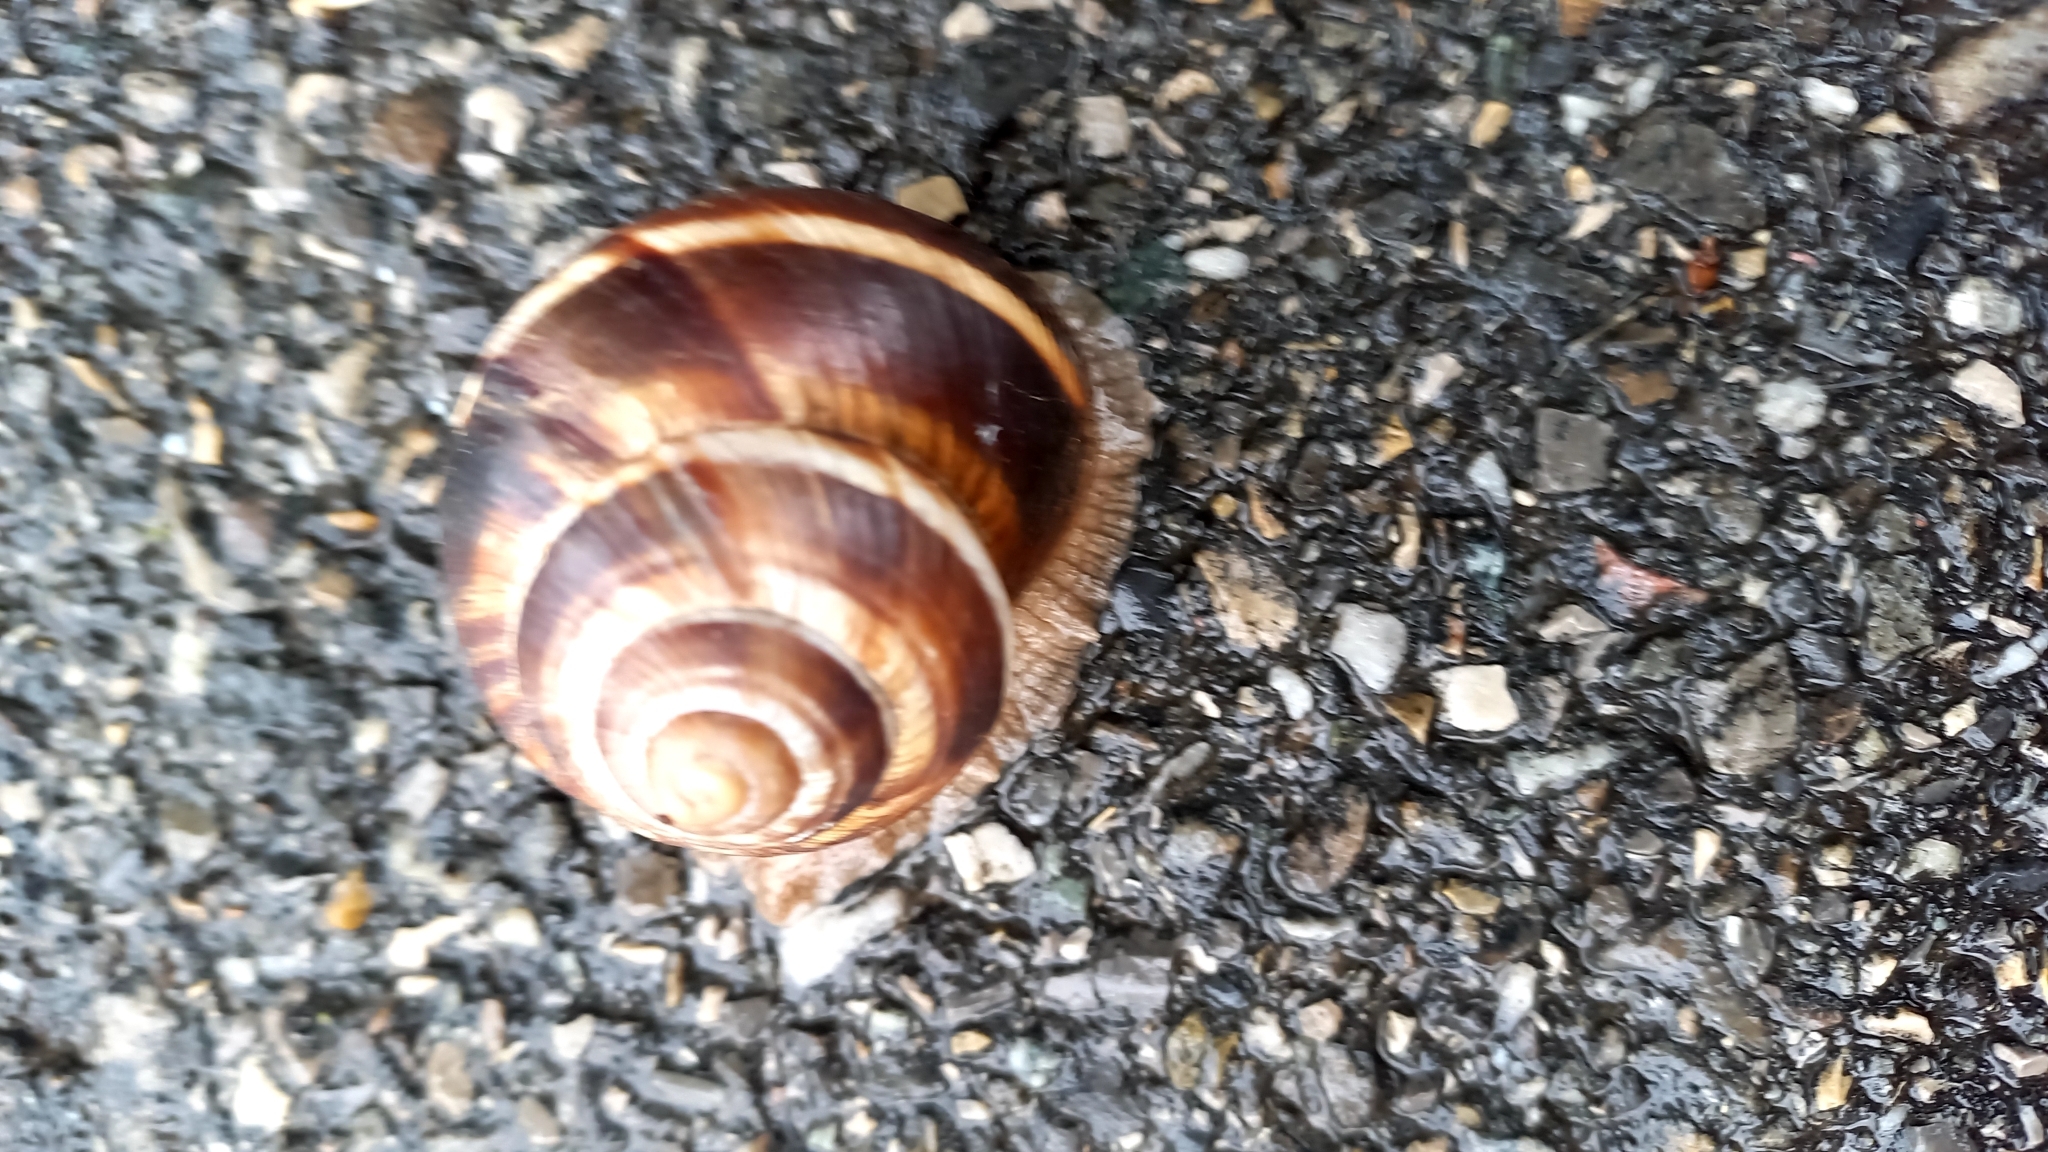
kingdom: Animalia
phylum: Mollusca
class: Gastropoda
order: Stylommatophora
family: Helicidae
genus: Helix
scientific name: Helix lucorum
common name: Turkish snail
